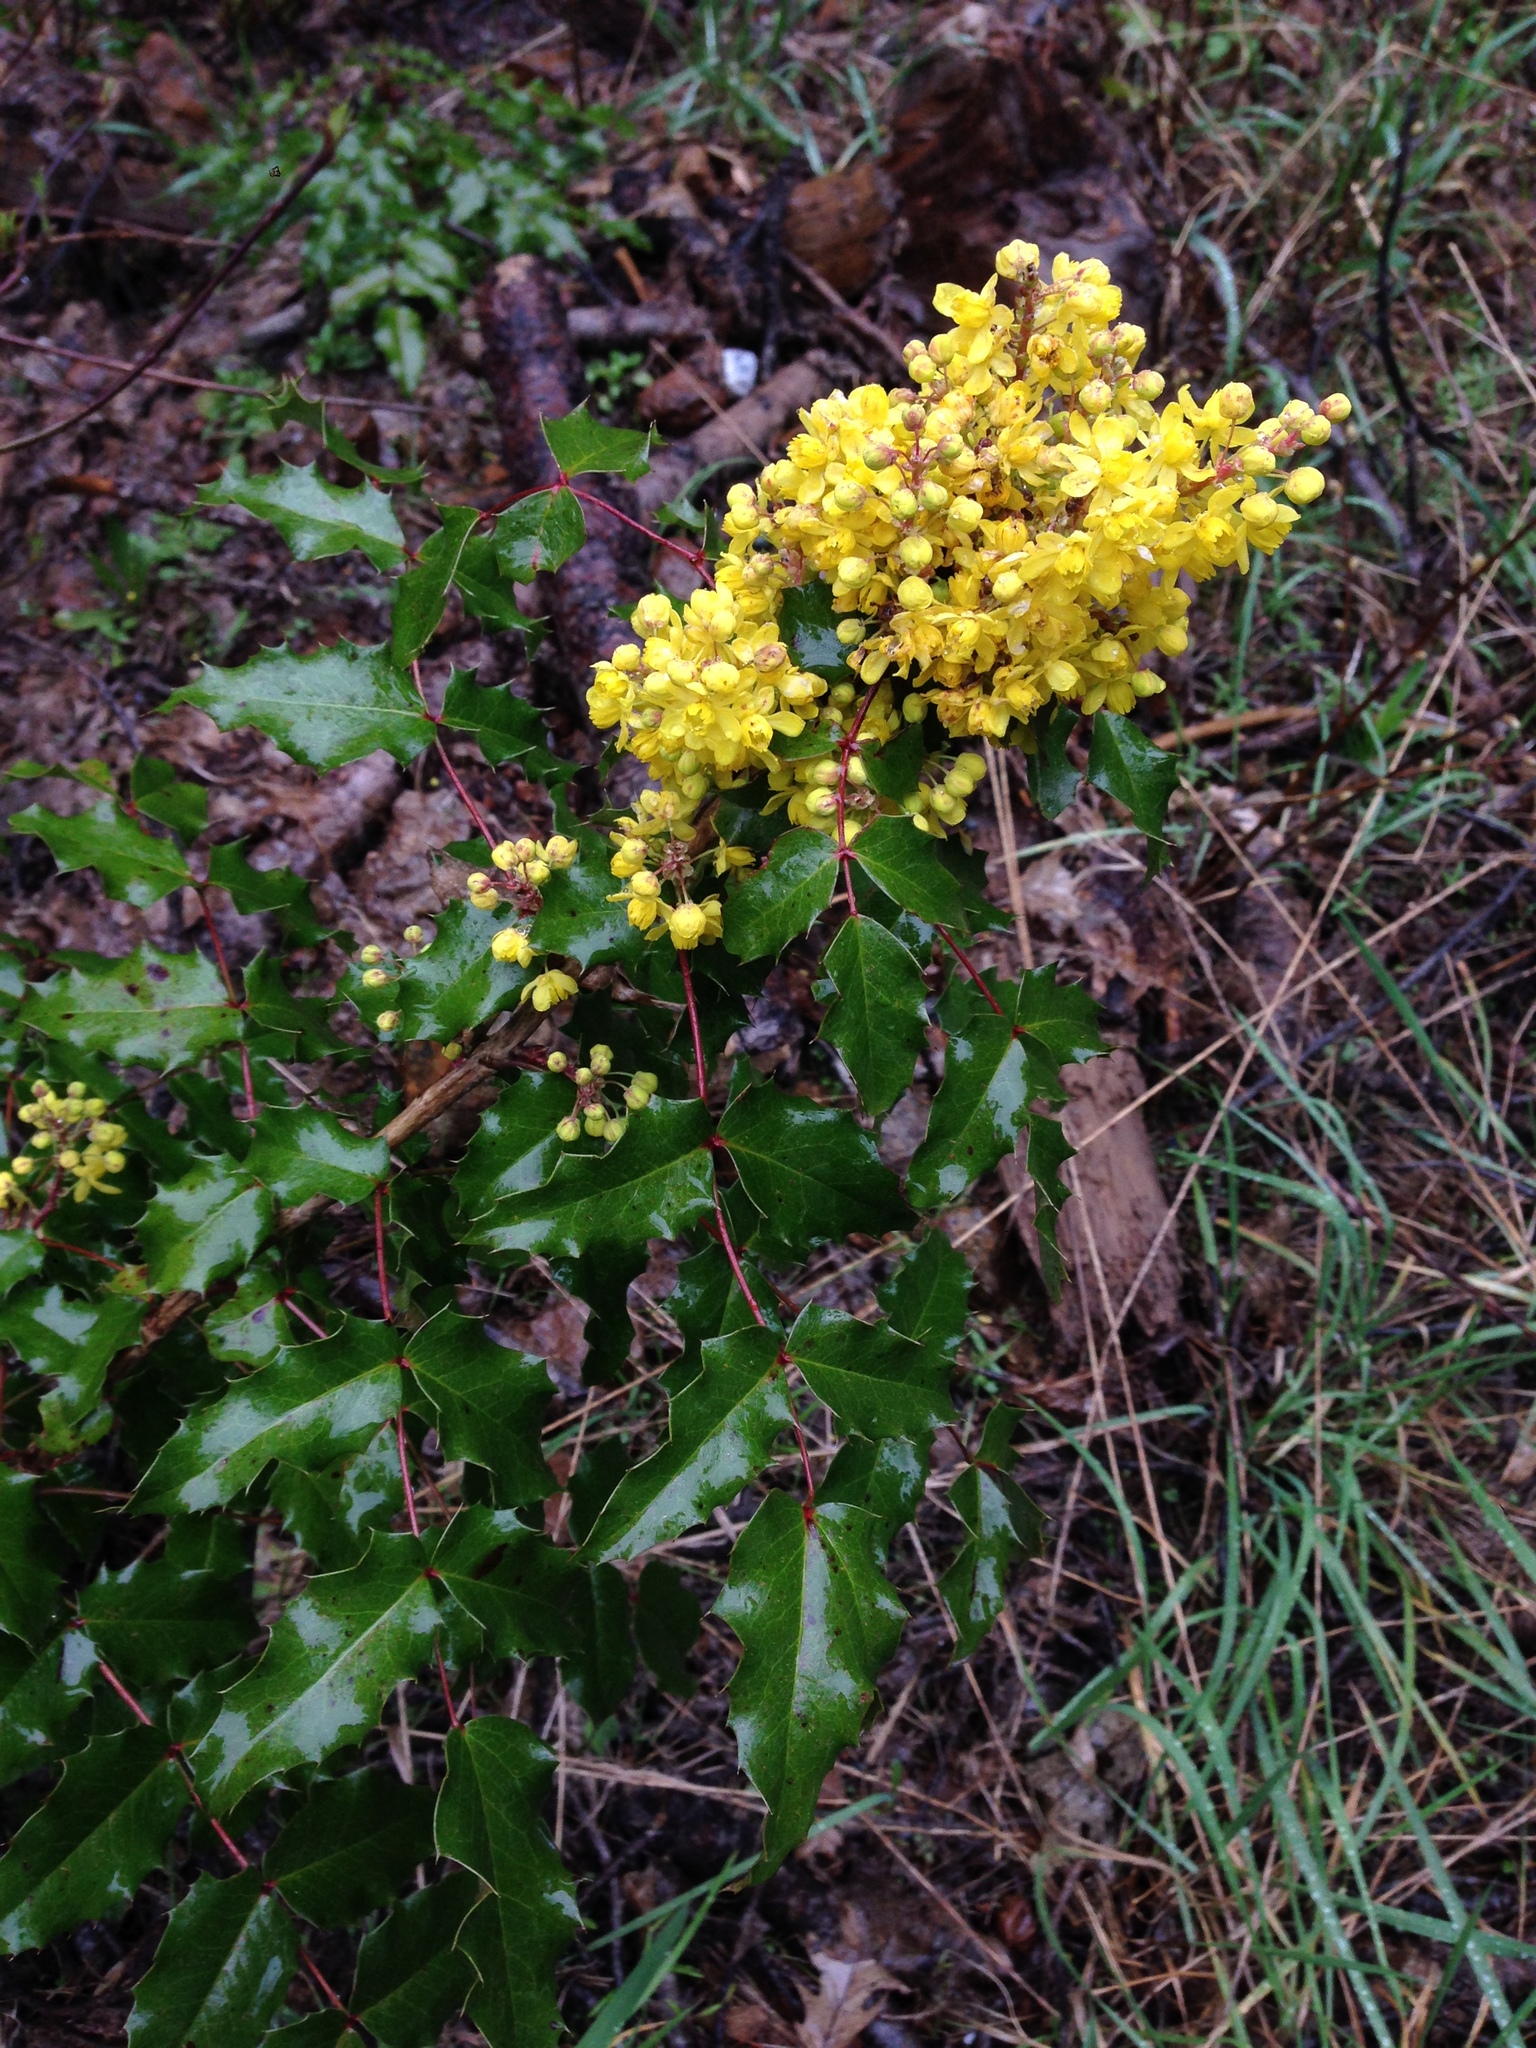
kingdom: Plantae
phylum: Tracheophyta
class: Magnoliopsida
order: Ranunculales
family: Berberidaceae
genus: Mahonia
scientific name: Mahonia aquifolium
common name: Oregon-grape
